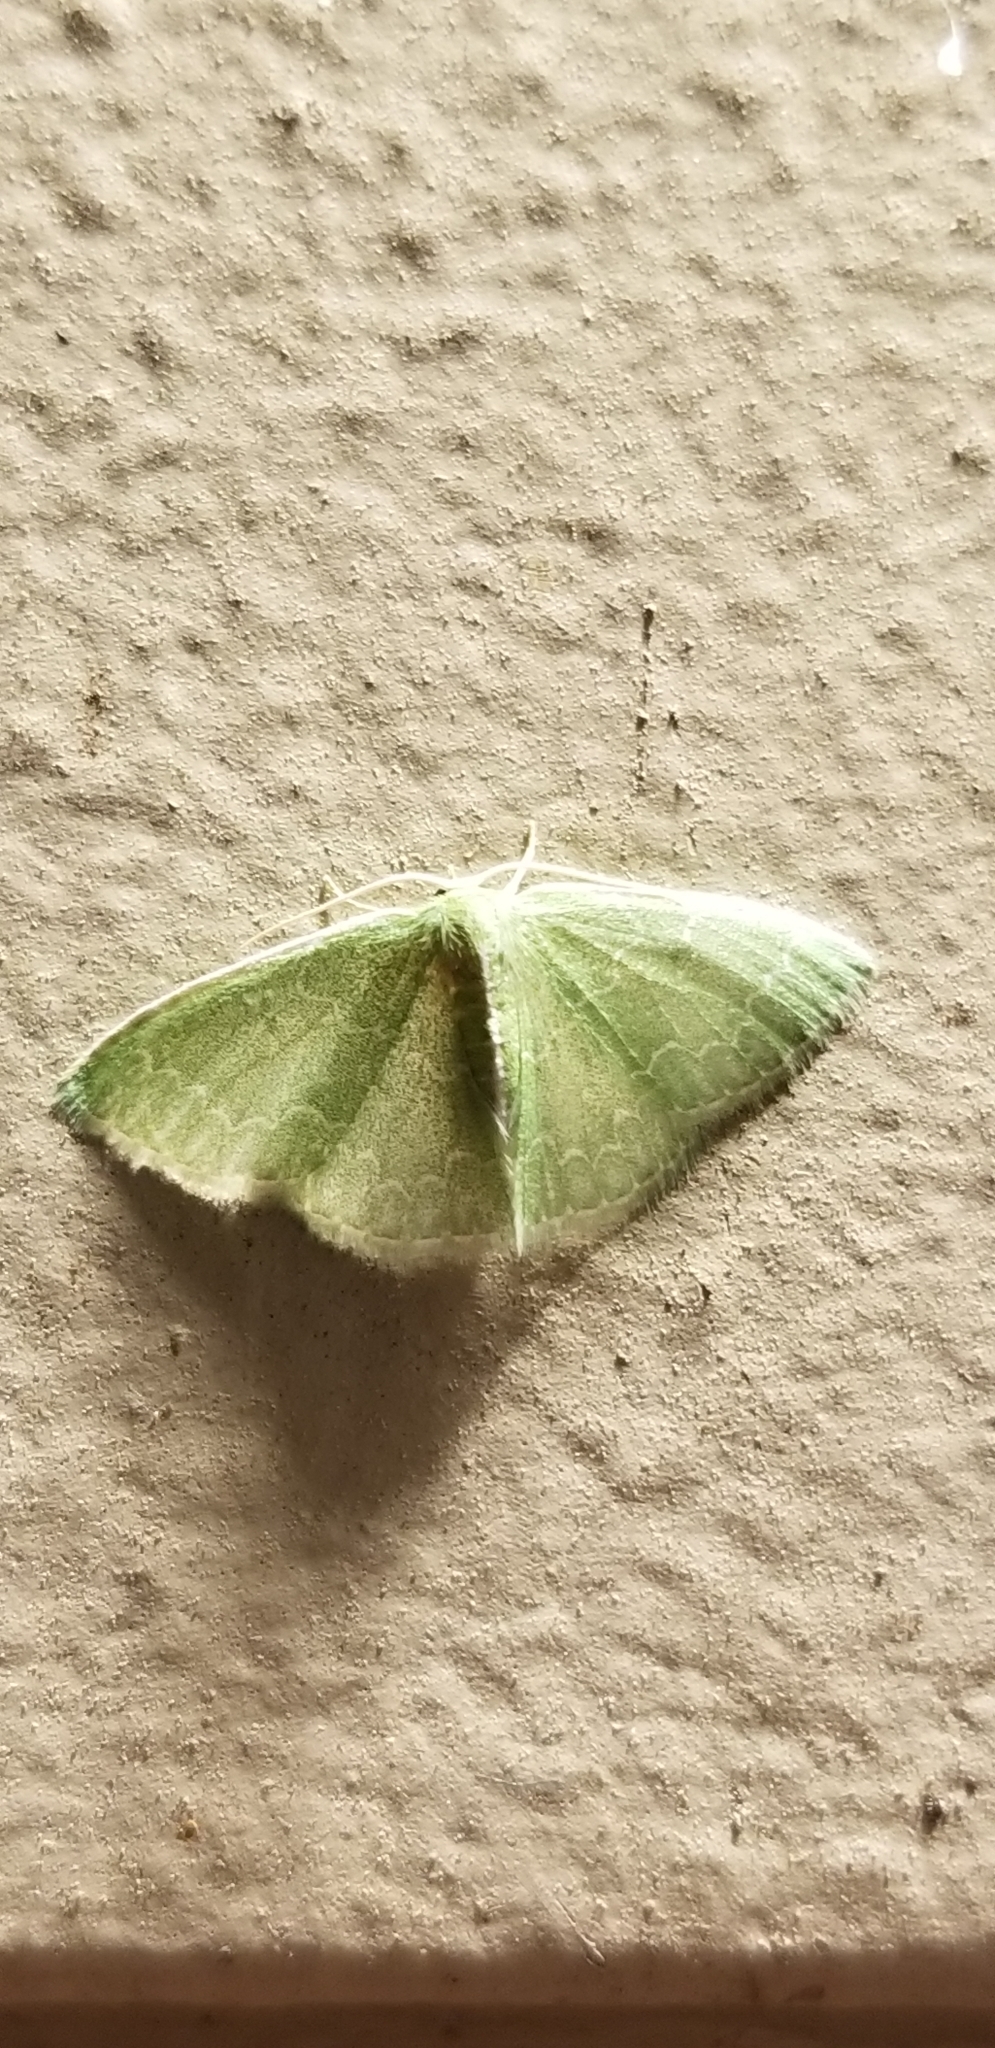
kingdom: Animalia
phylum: Arthropoda
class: Insecta
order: Lepidoptera
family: Geometridae
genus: Synchlora
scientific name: Synchlora frondaria
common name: Southern emerald
